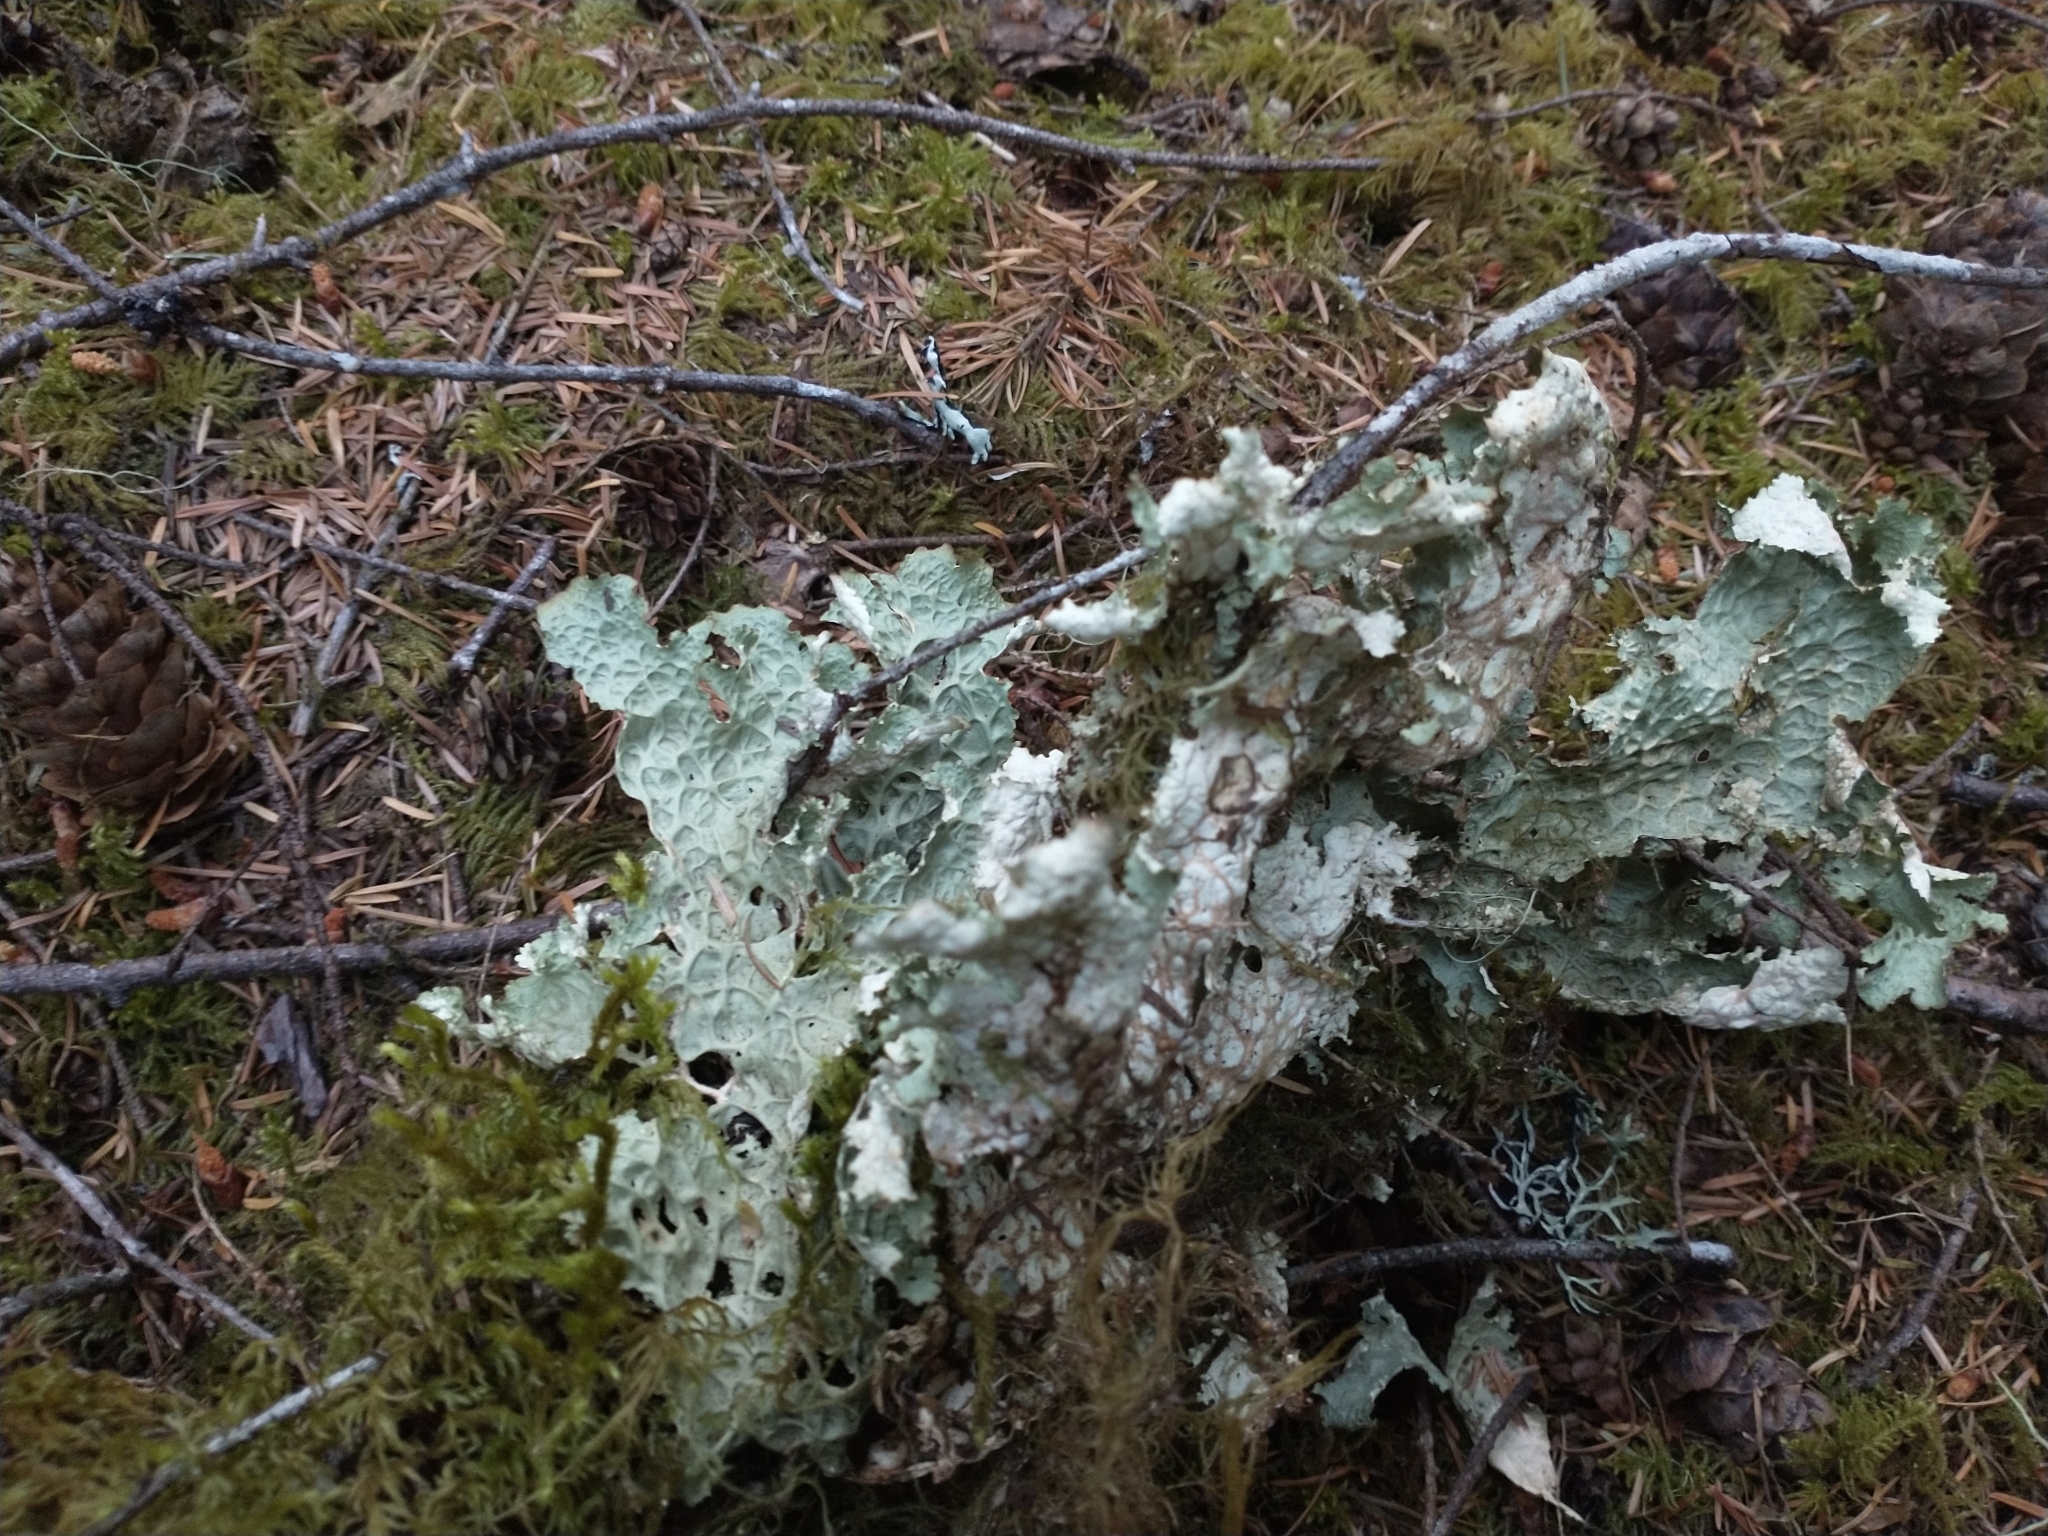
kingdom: Fungi
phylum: Ascomycota
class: Lecanoromycetes
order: Peltigerales
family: Lobariaceae
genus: Lobaria
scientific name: Lobaria oregana
